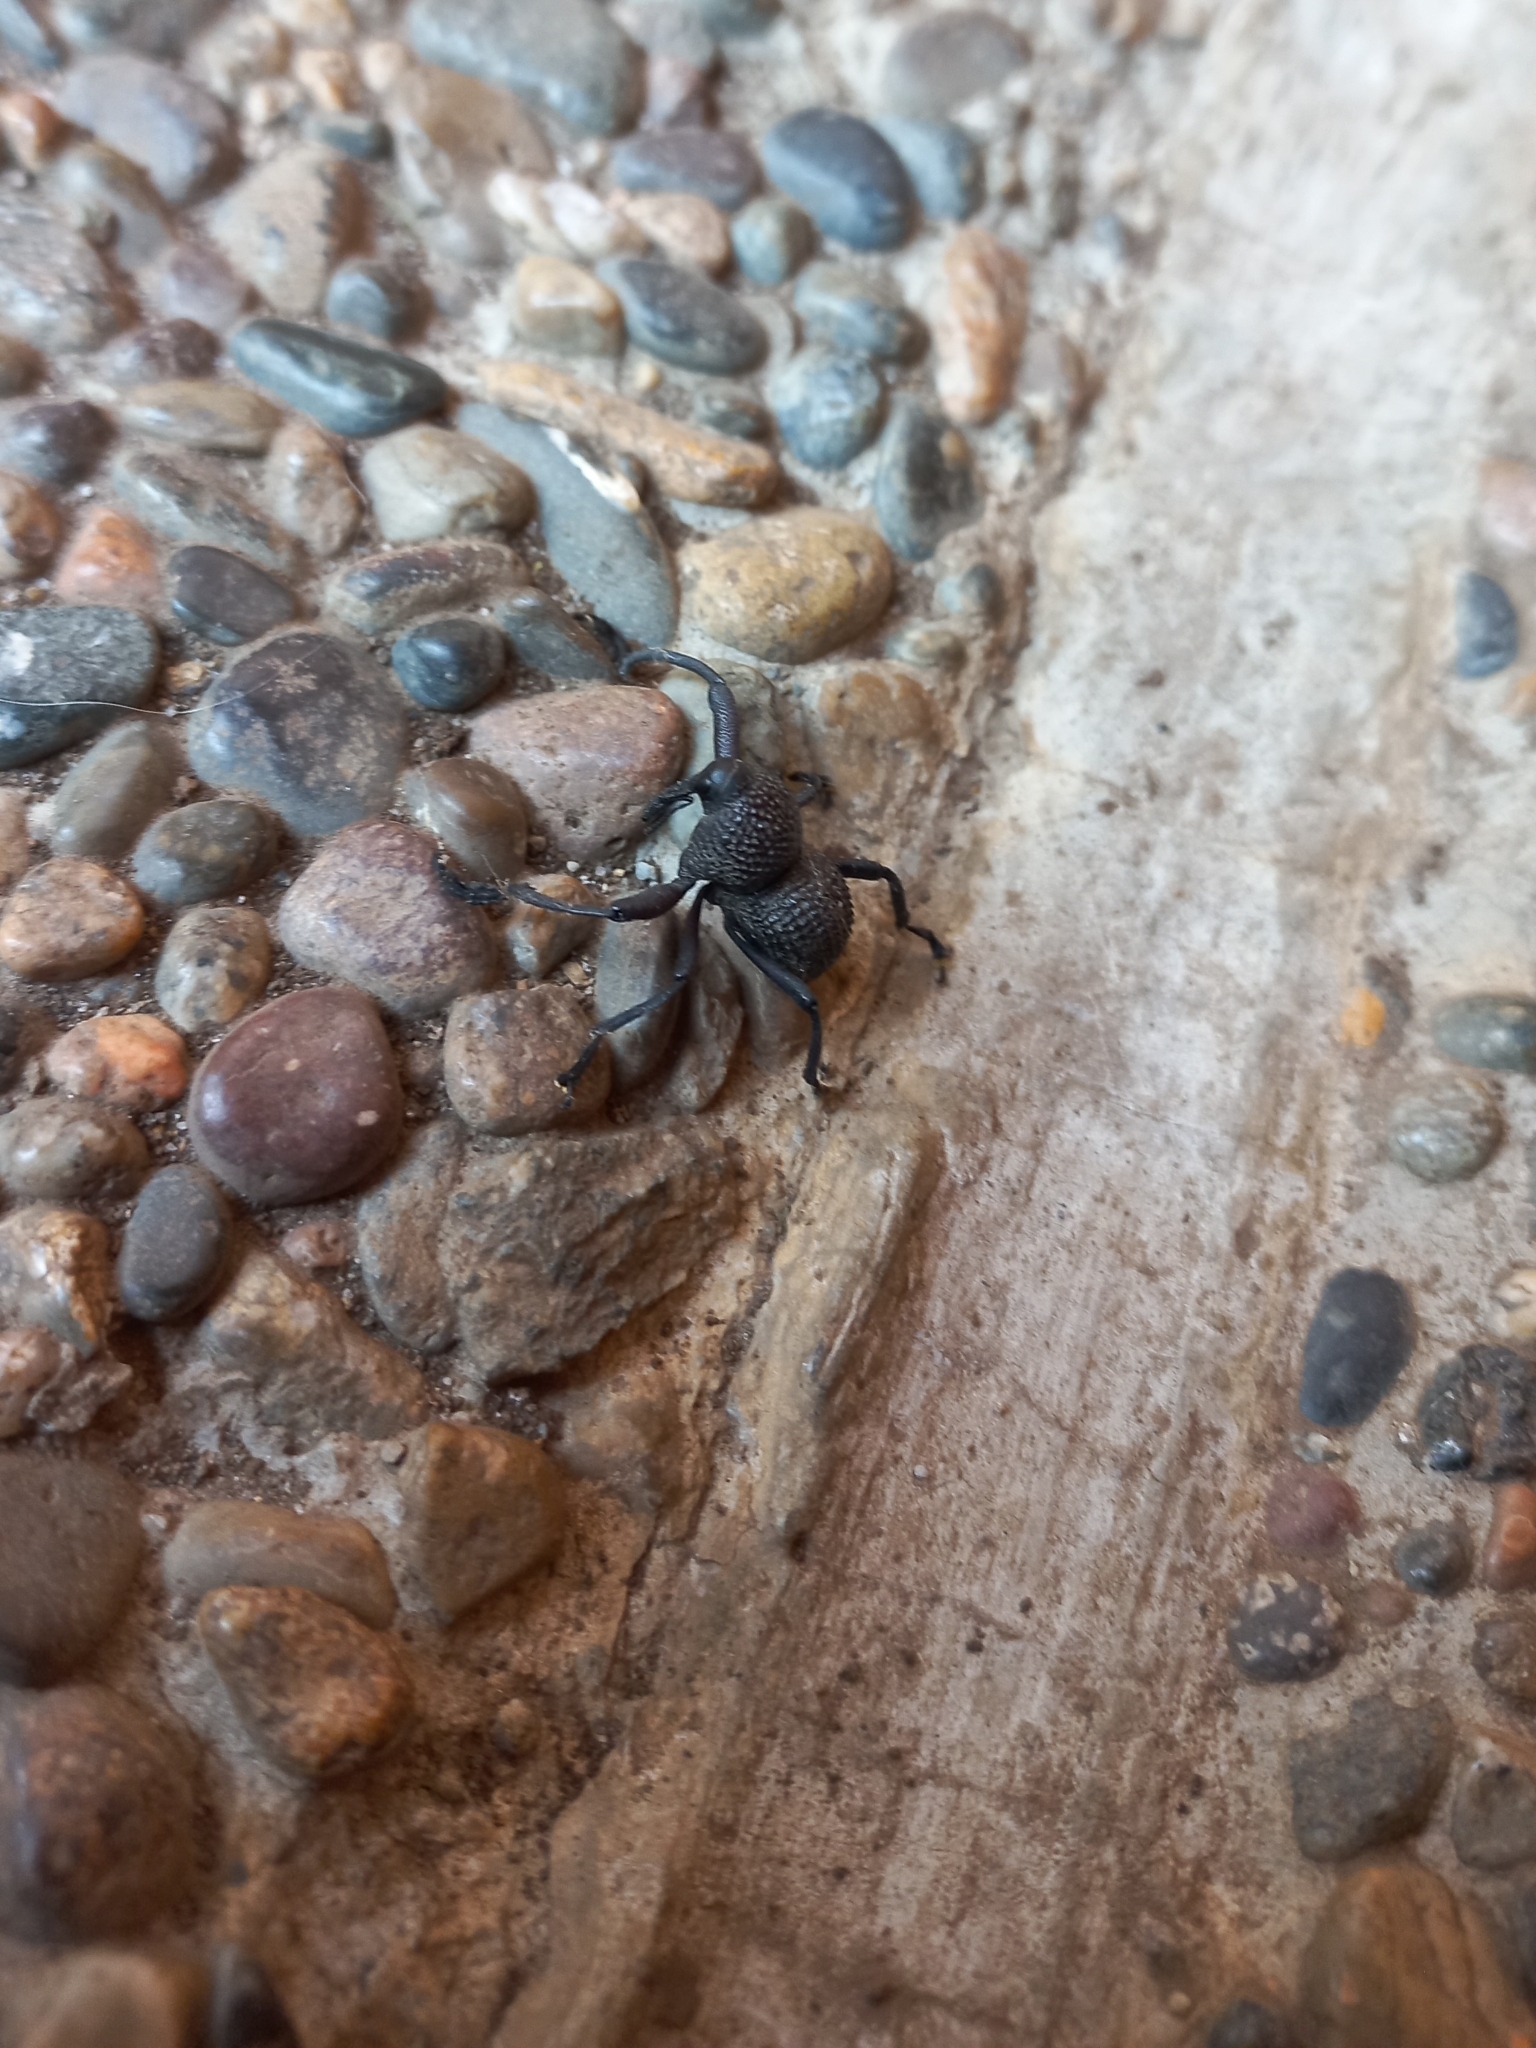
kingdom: Animalia
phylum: Arthropoda
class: Insecta
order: Coleoptera
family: Curculionidae
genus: Rhyephenes
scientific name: Rhyephenes maillei
